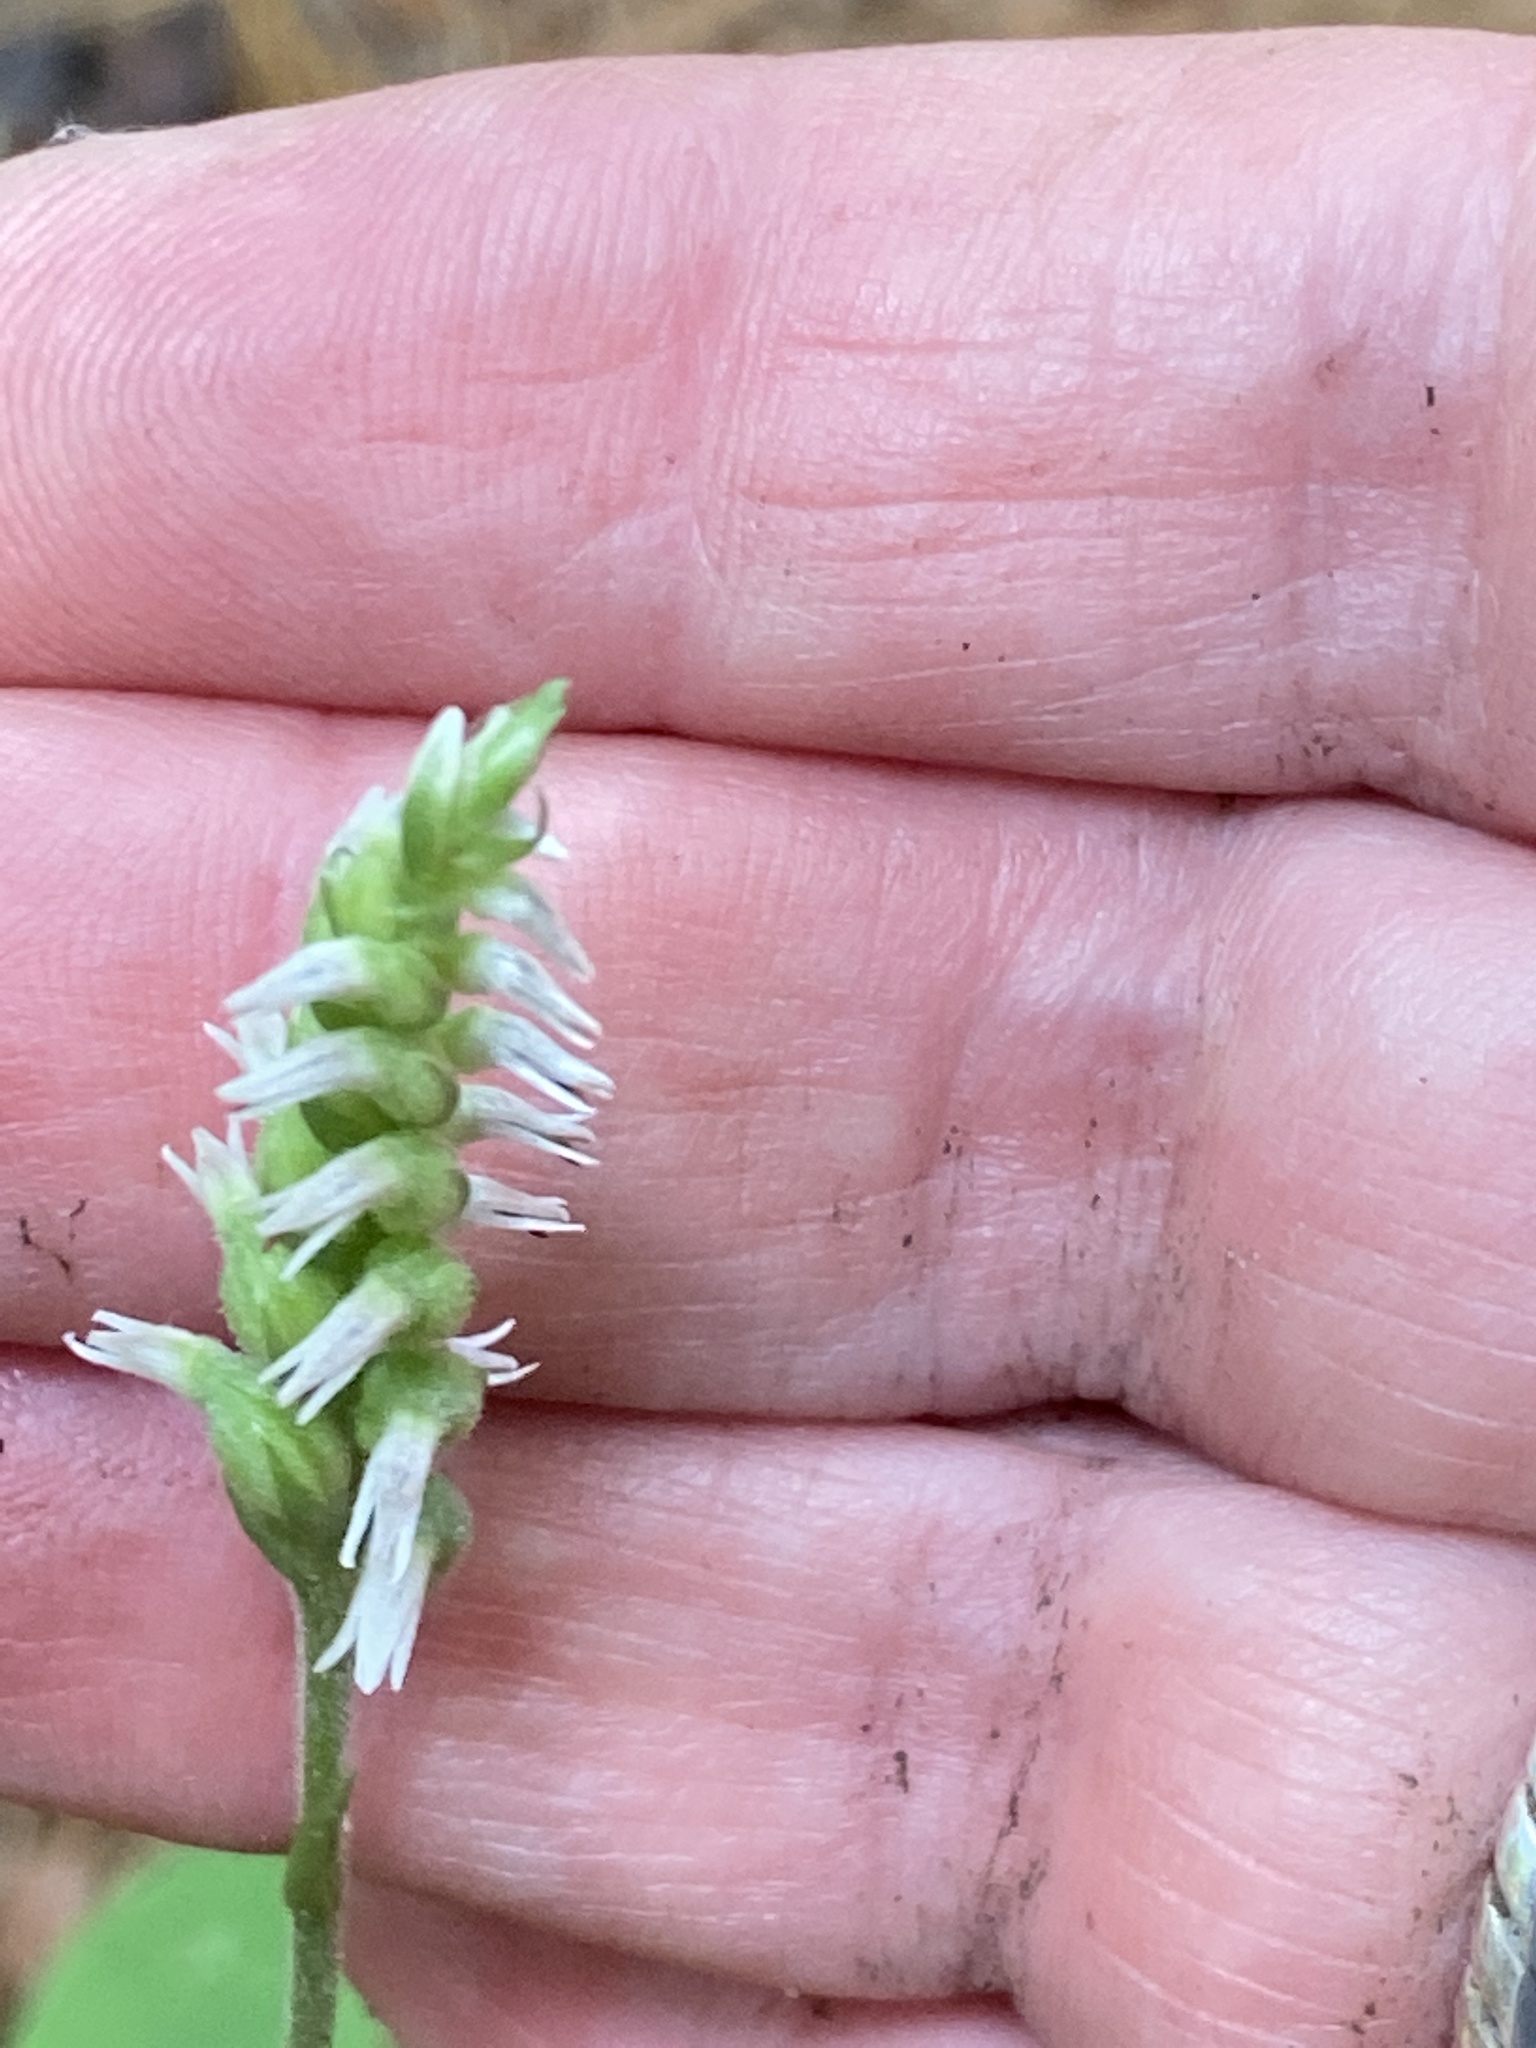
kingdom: Plantae
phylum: Tracheophyta
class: Liliopsida
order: Asparagales
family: Orchidaceae
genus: Spiranthes
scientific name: Spiranthes ovalis
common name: October ladies'-tresses
